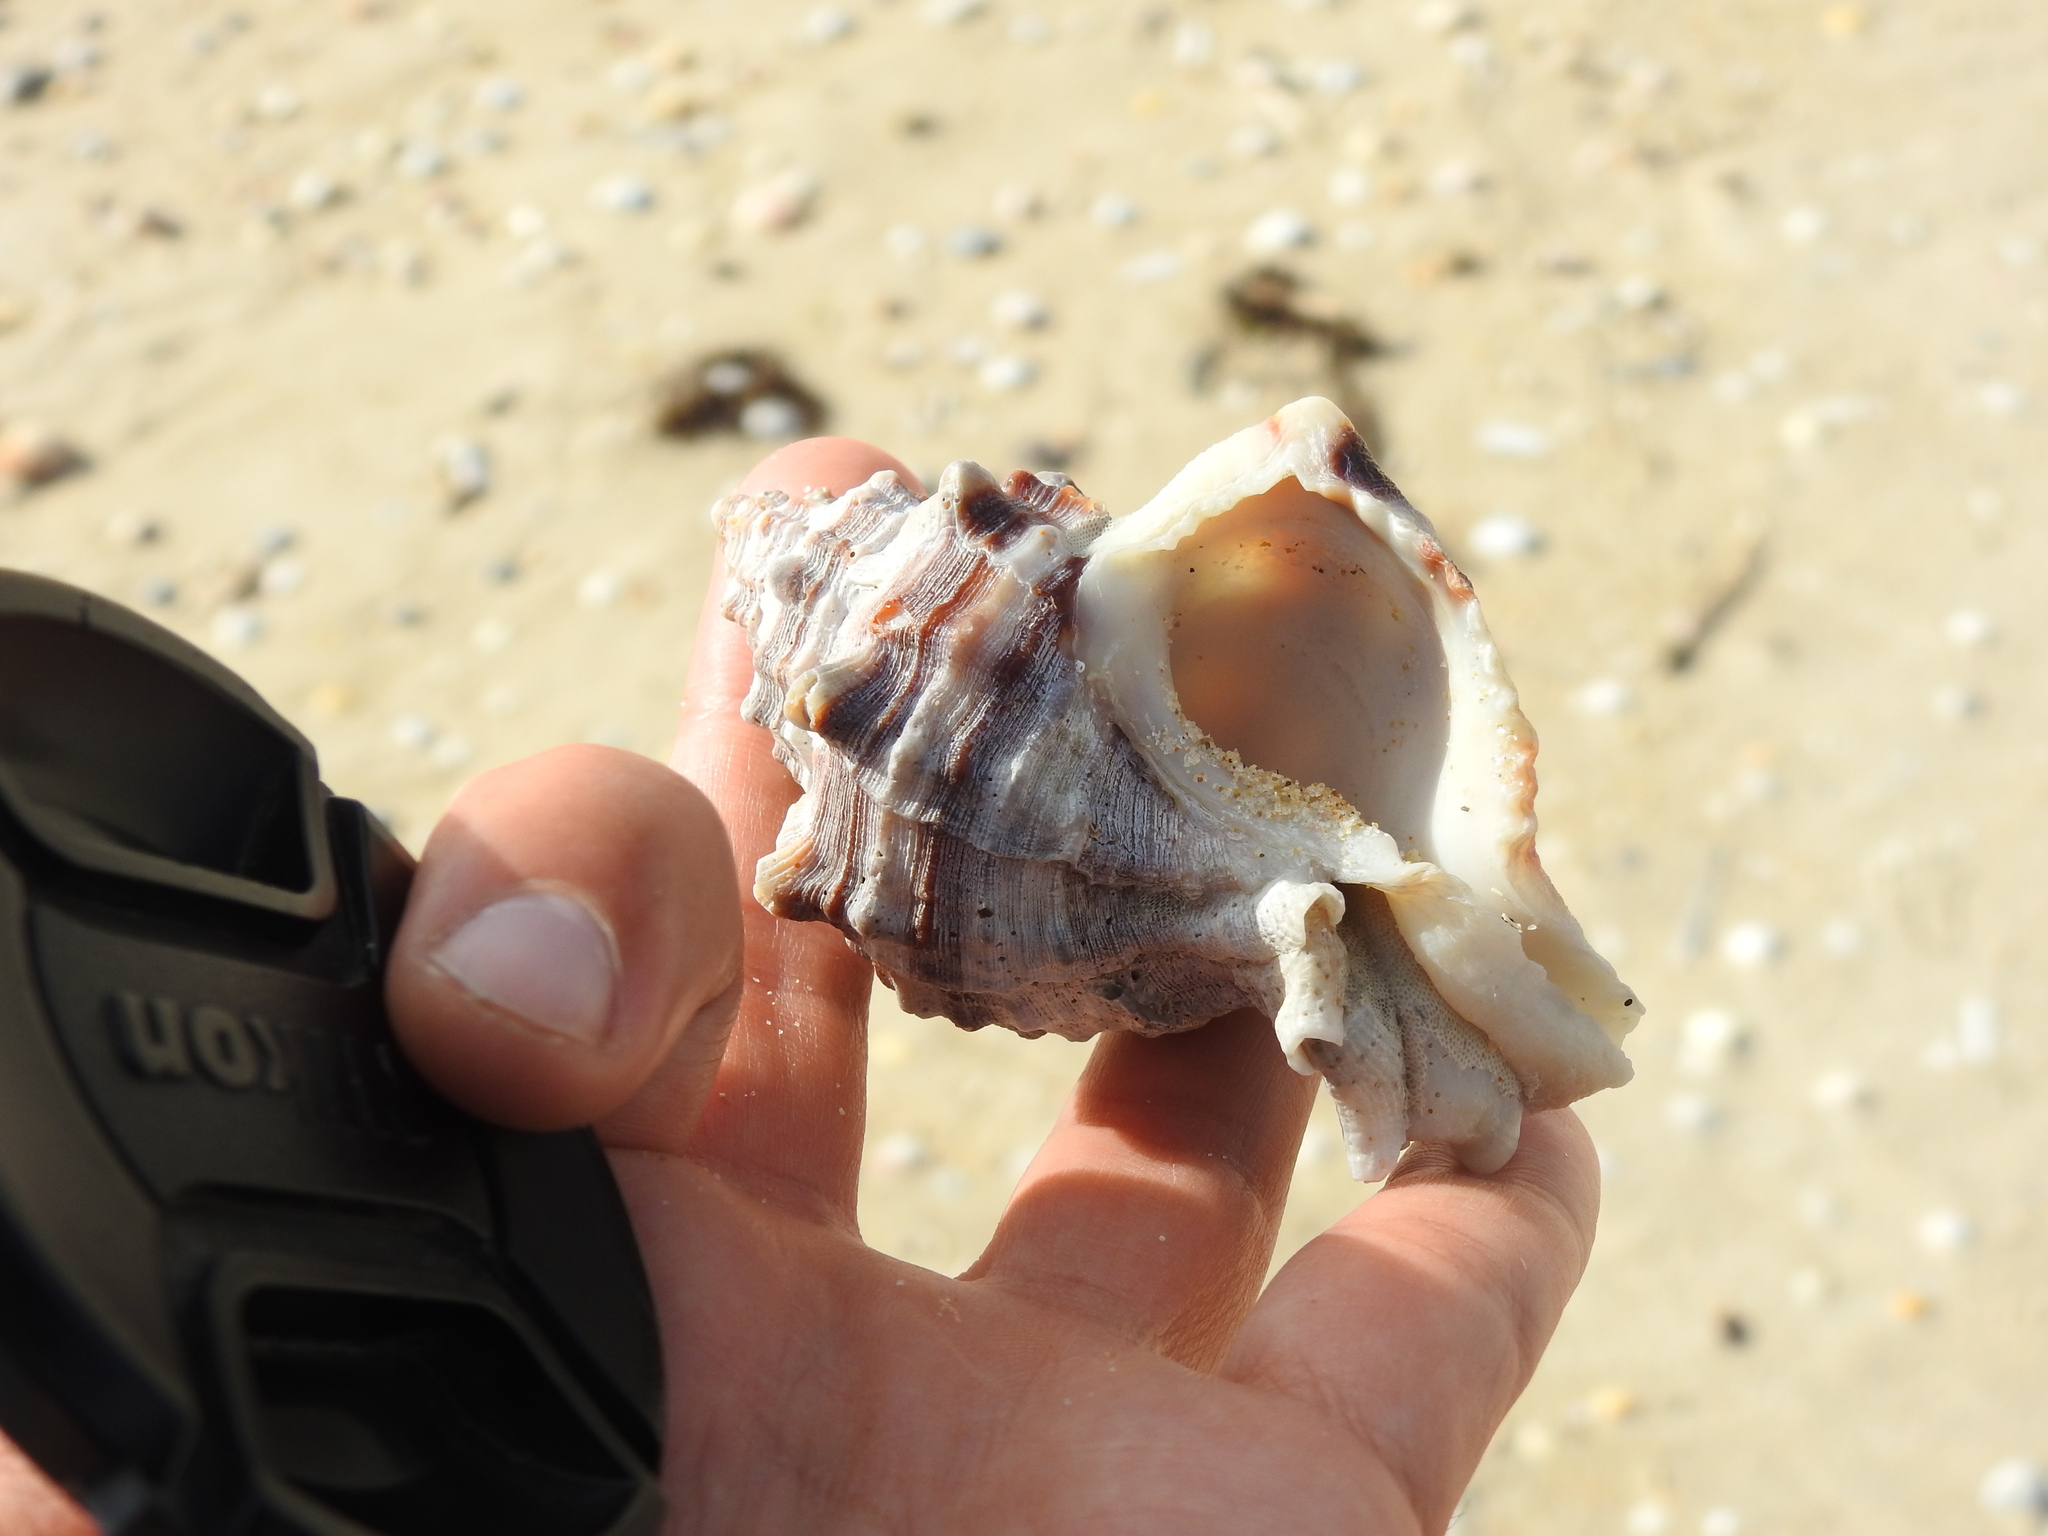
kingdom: Animalia
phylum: Mollusca
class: Gastropoda
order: Neogastropoda
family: Muricidae
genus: Hexaplex
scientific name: Hexaplex trunculus
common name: Banded dye-murex
